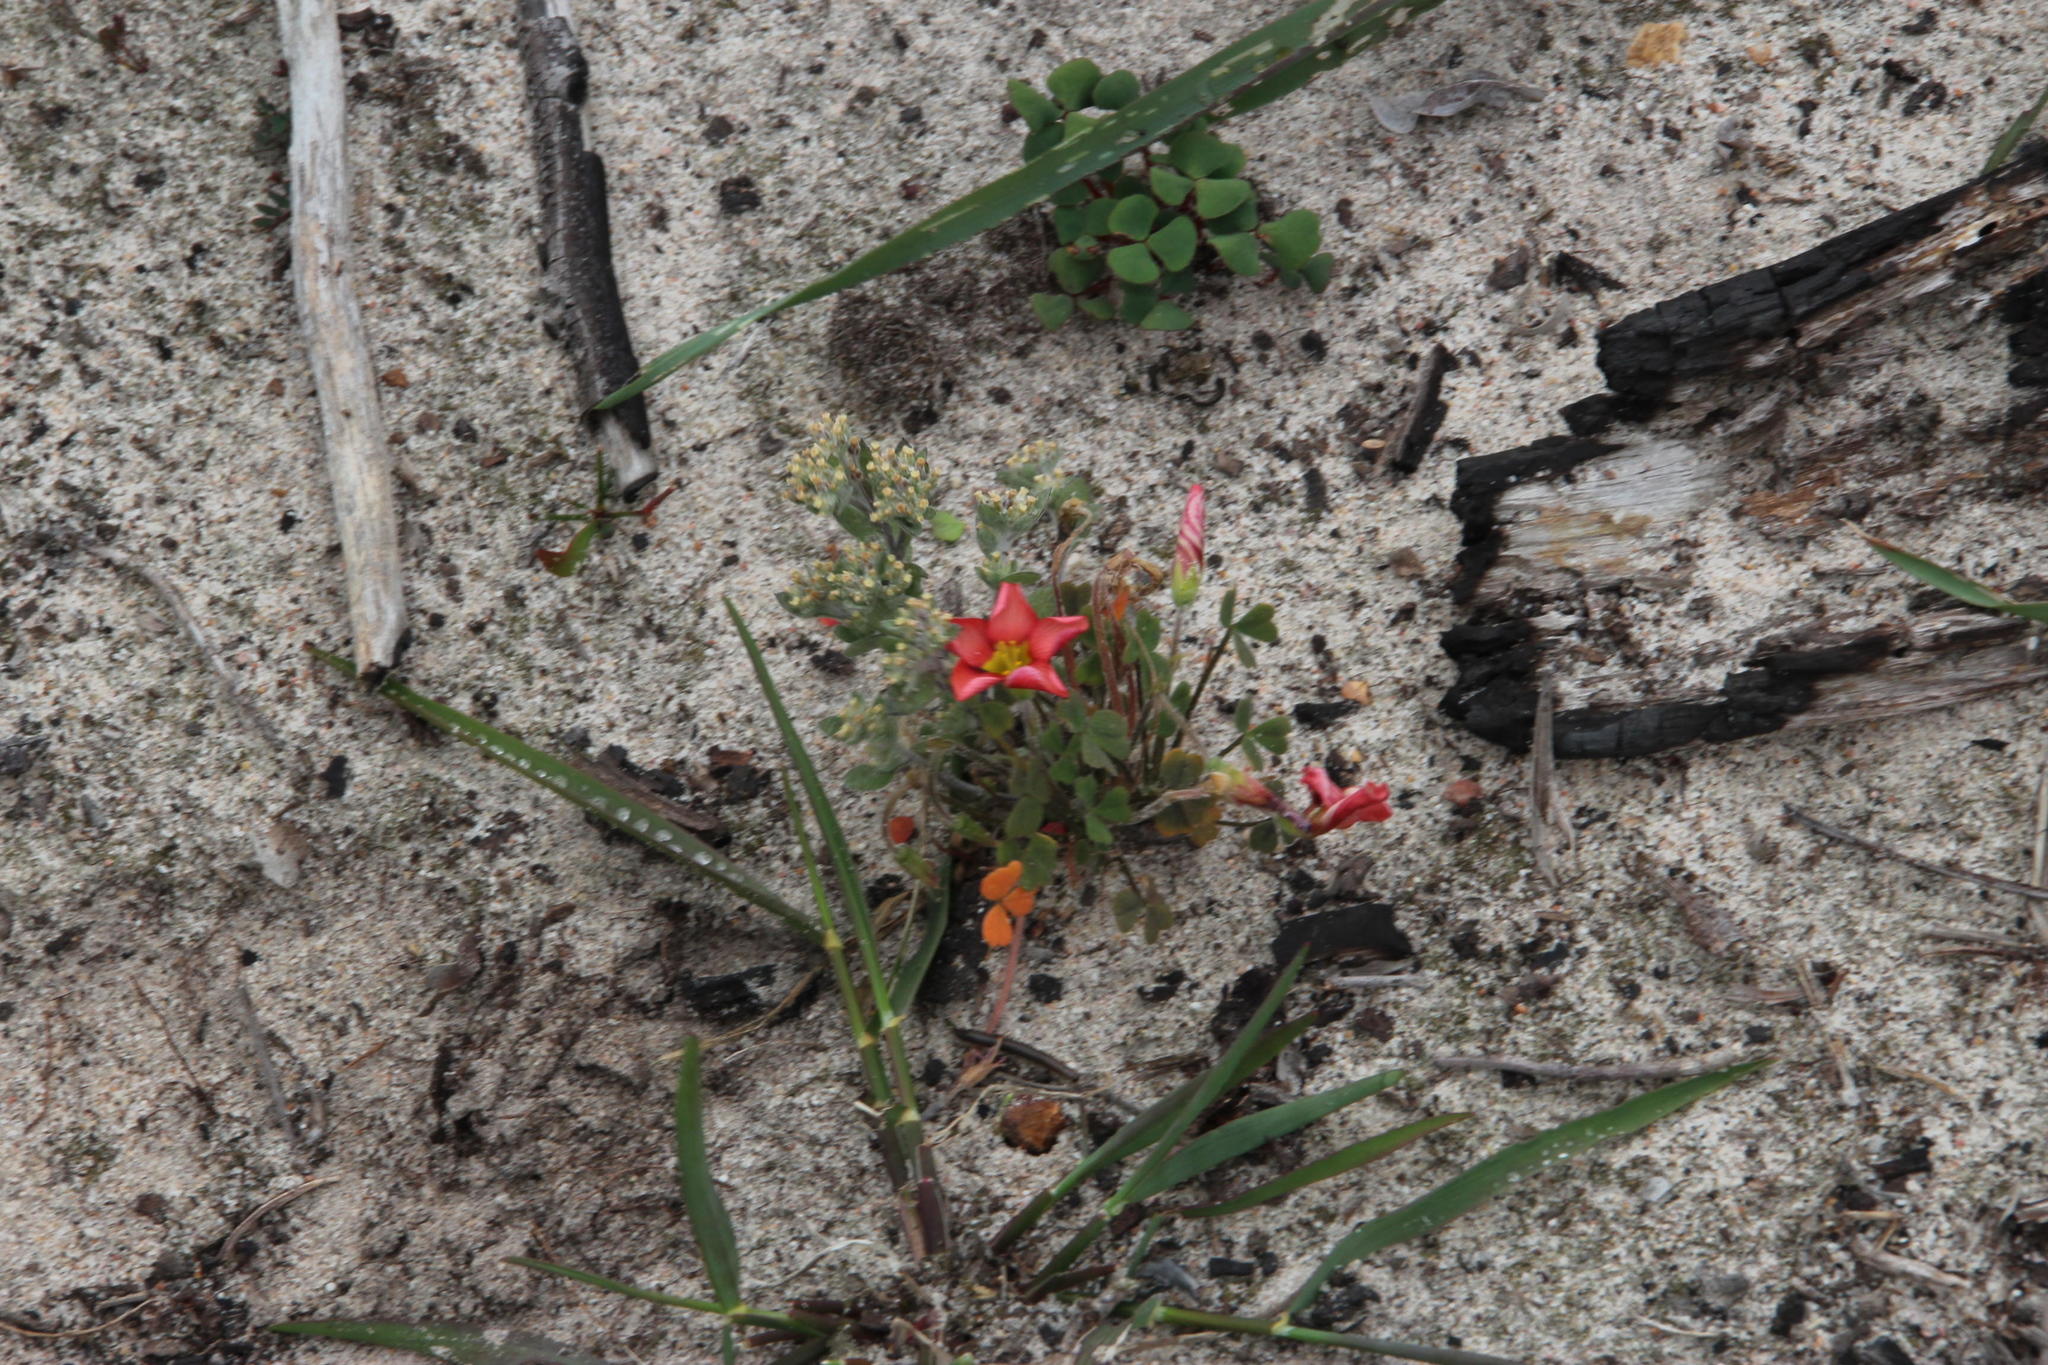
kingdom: Plantae
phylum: Tracheophyta
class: Magnoliopsida
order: Oxalidales
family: Oxalidaceae
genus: Oxalis
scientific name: Oxalis obtusa
